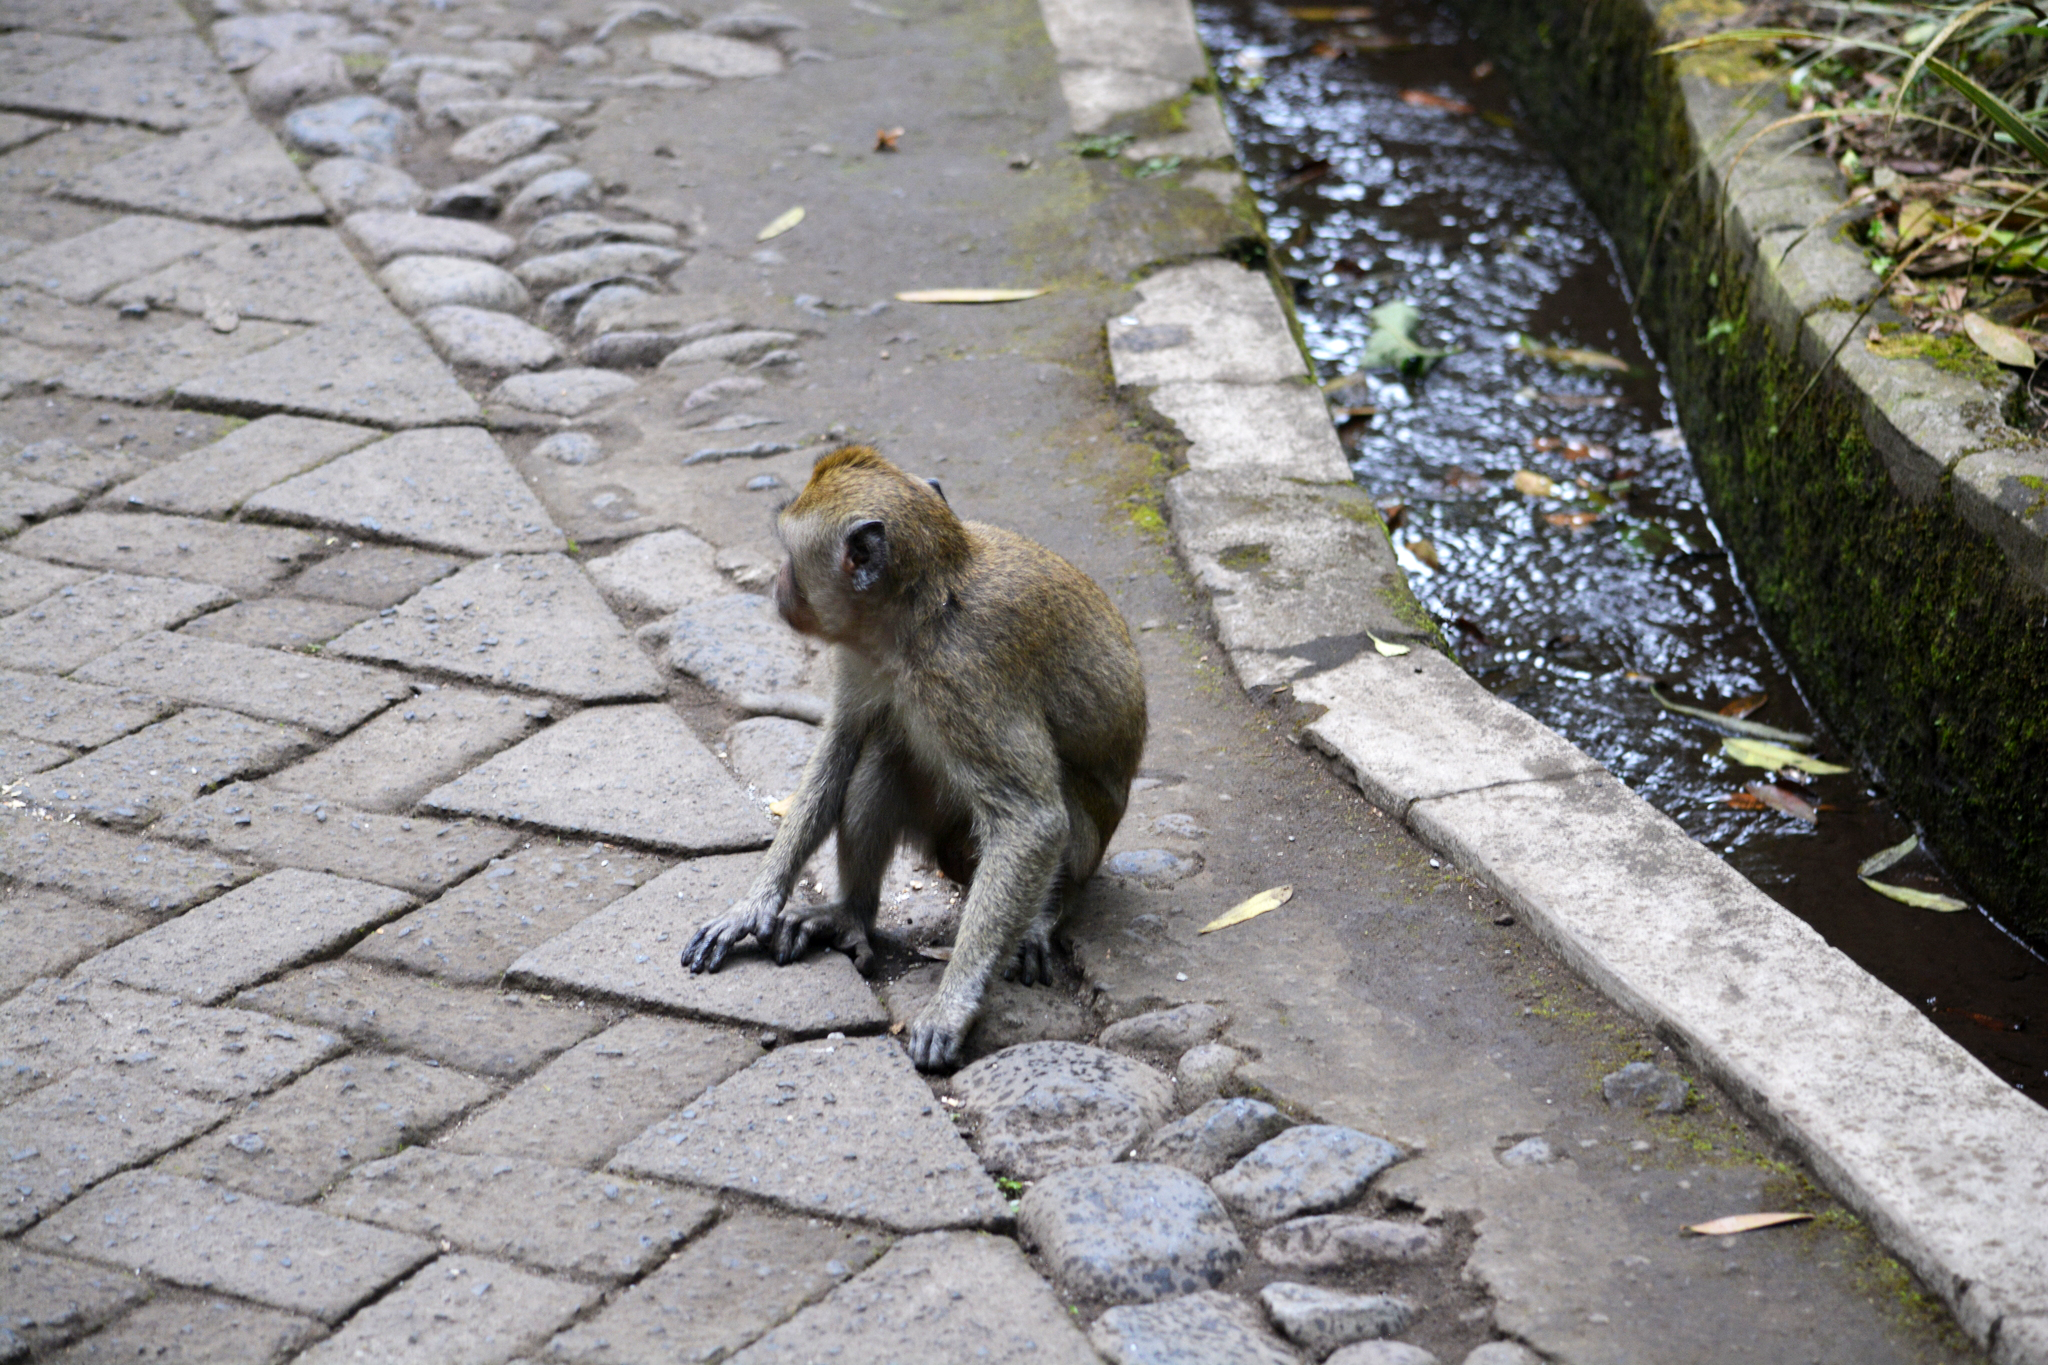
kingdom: Animalia
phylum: Chordata
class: Mammalia
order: Primates
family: Cercopithecidae
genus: Macaca
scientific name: Macaca fascicularis
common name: Crab-eating macaque
